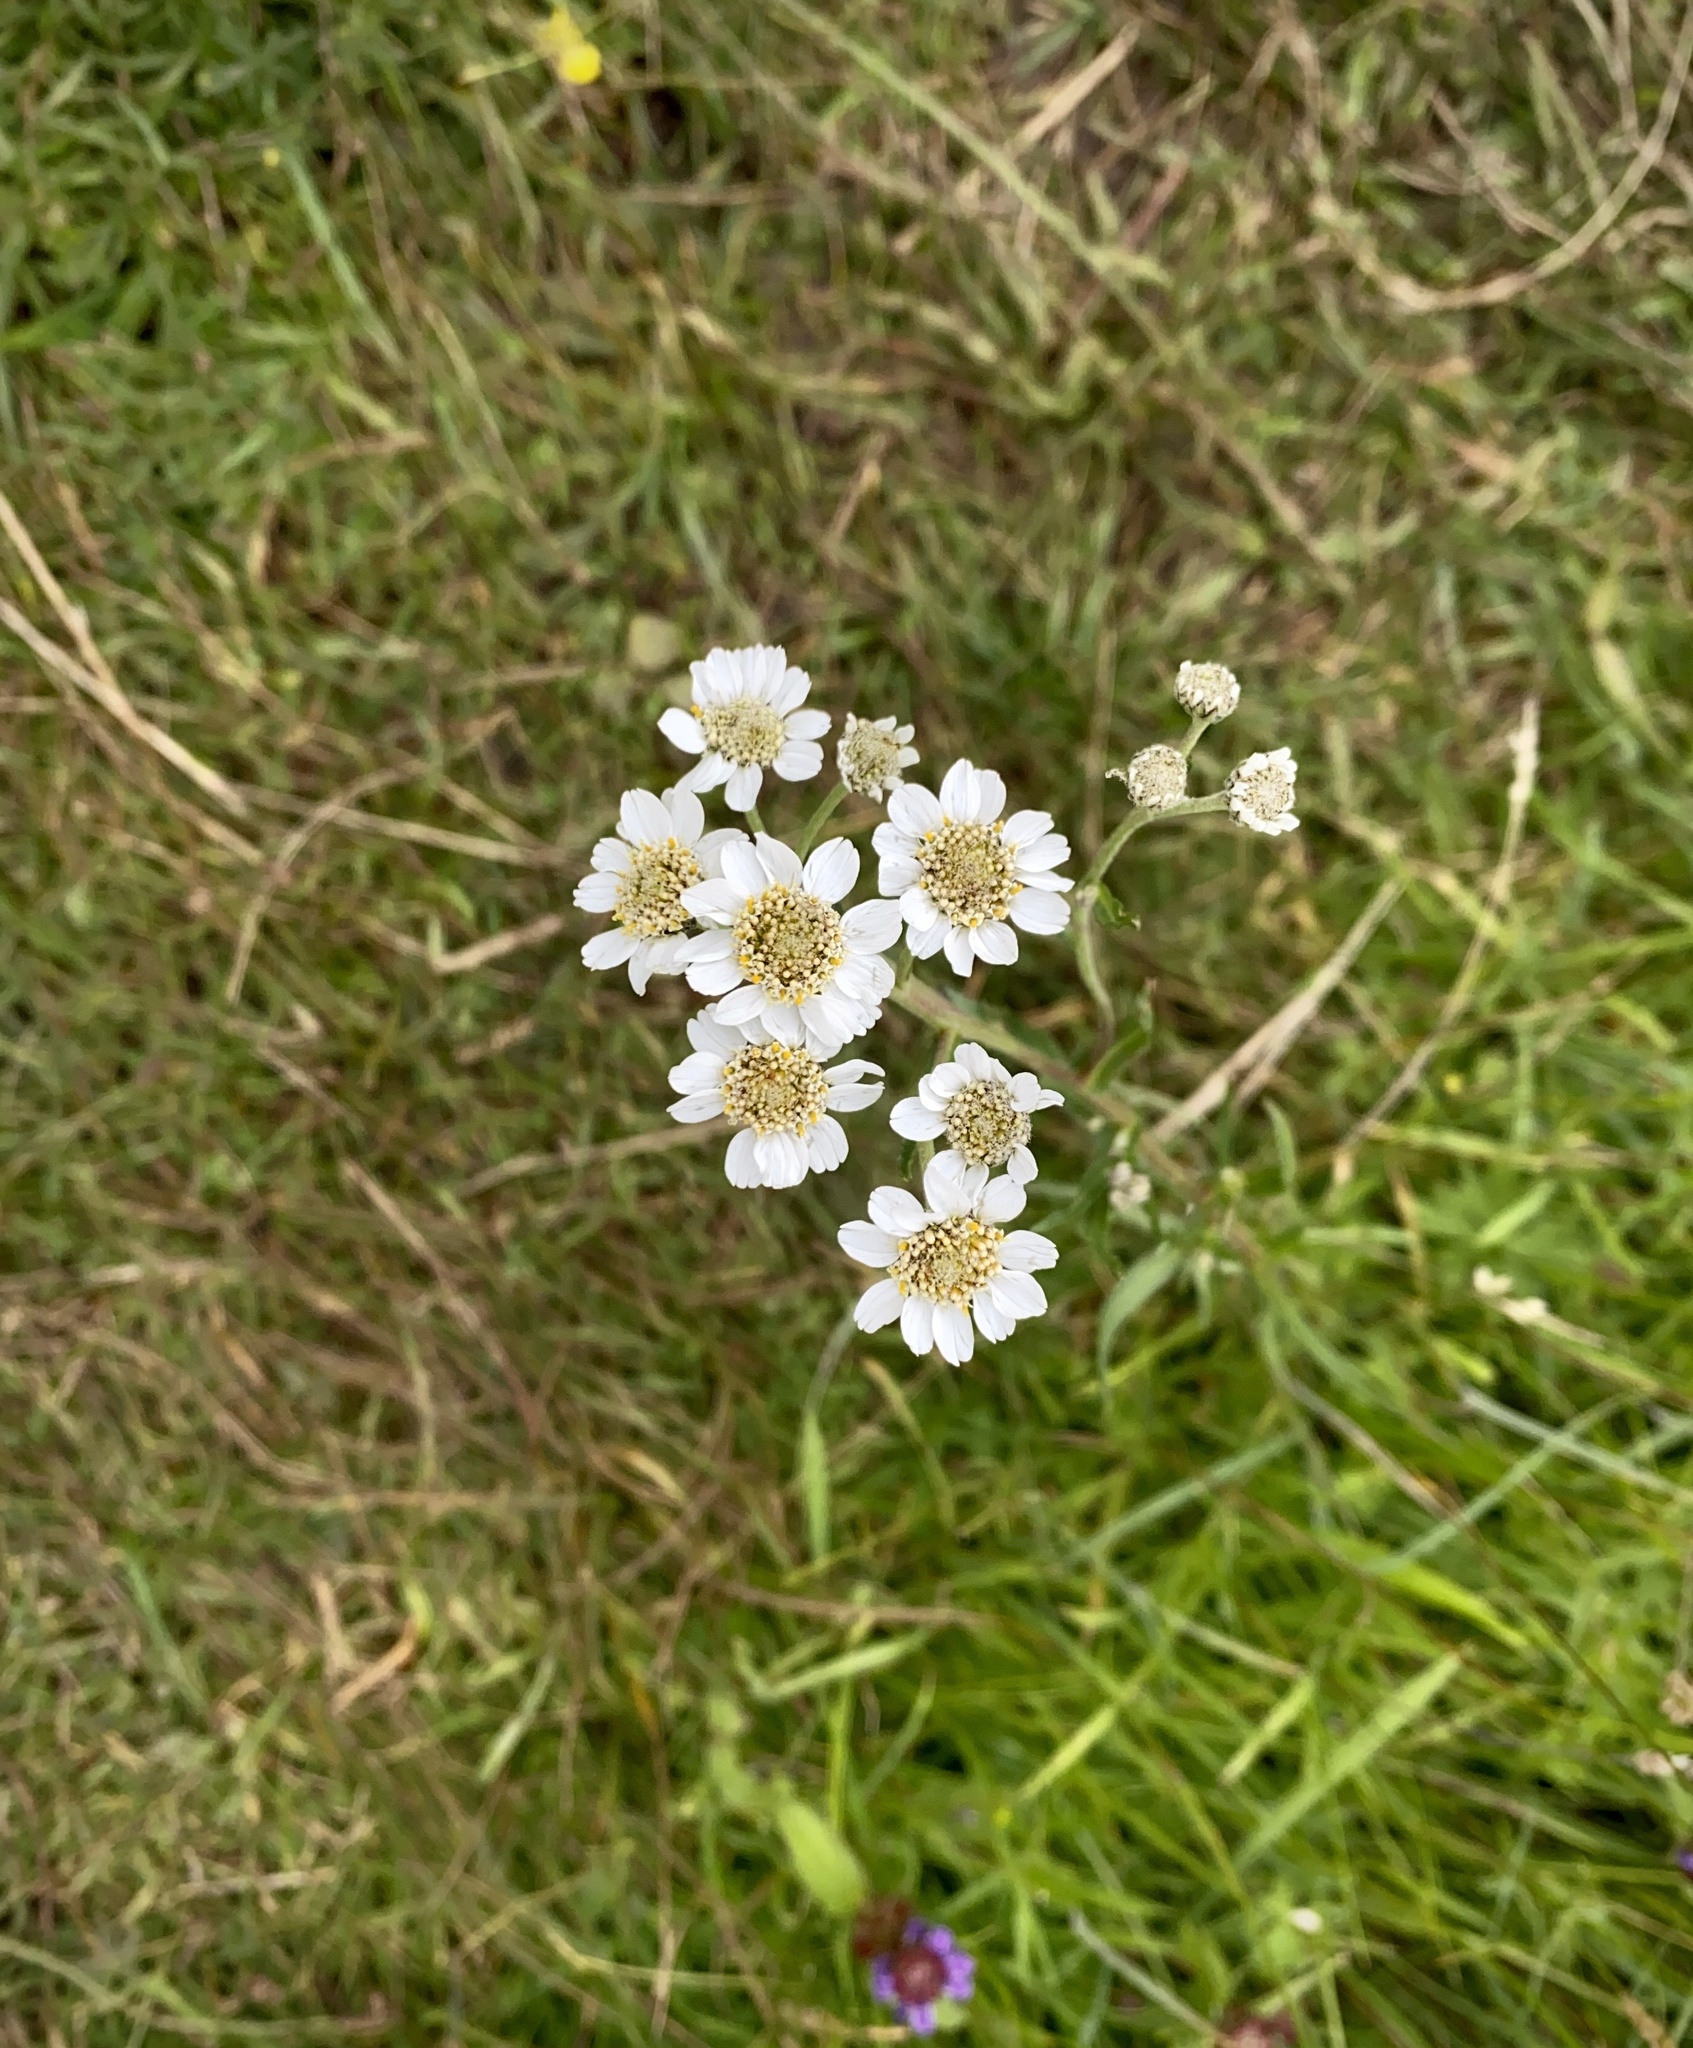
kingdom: Plantae
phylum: Tracheophyta
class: Magnoliopsida
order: Asterales
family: Asteraceae
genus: Achillea
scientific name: Achillea ptarmica
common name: Sneezeweed
